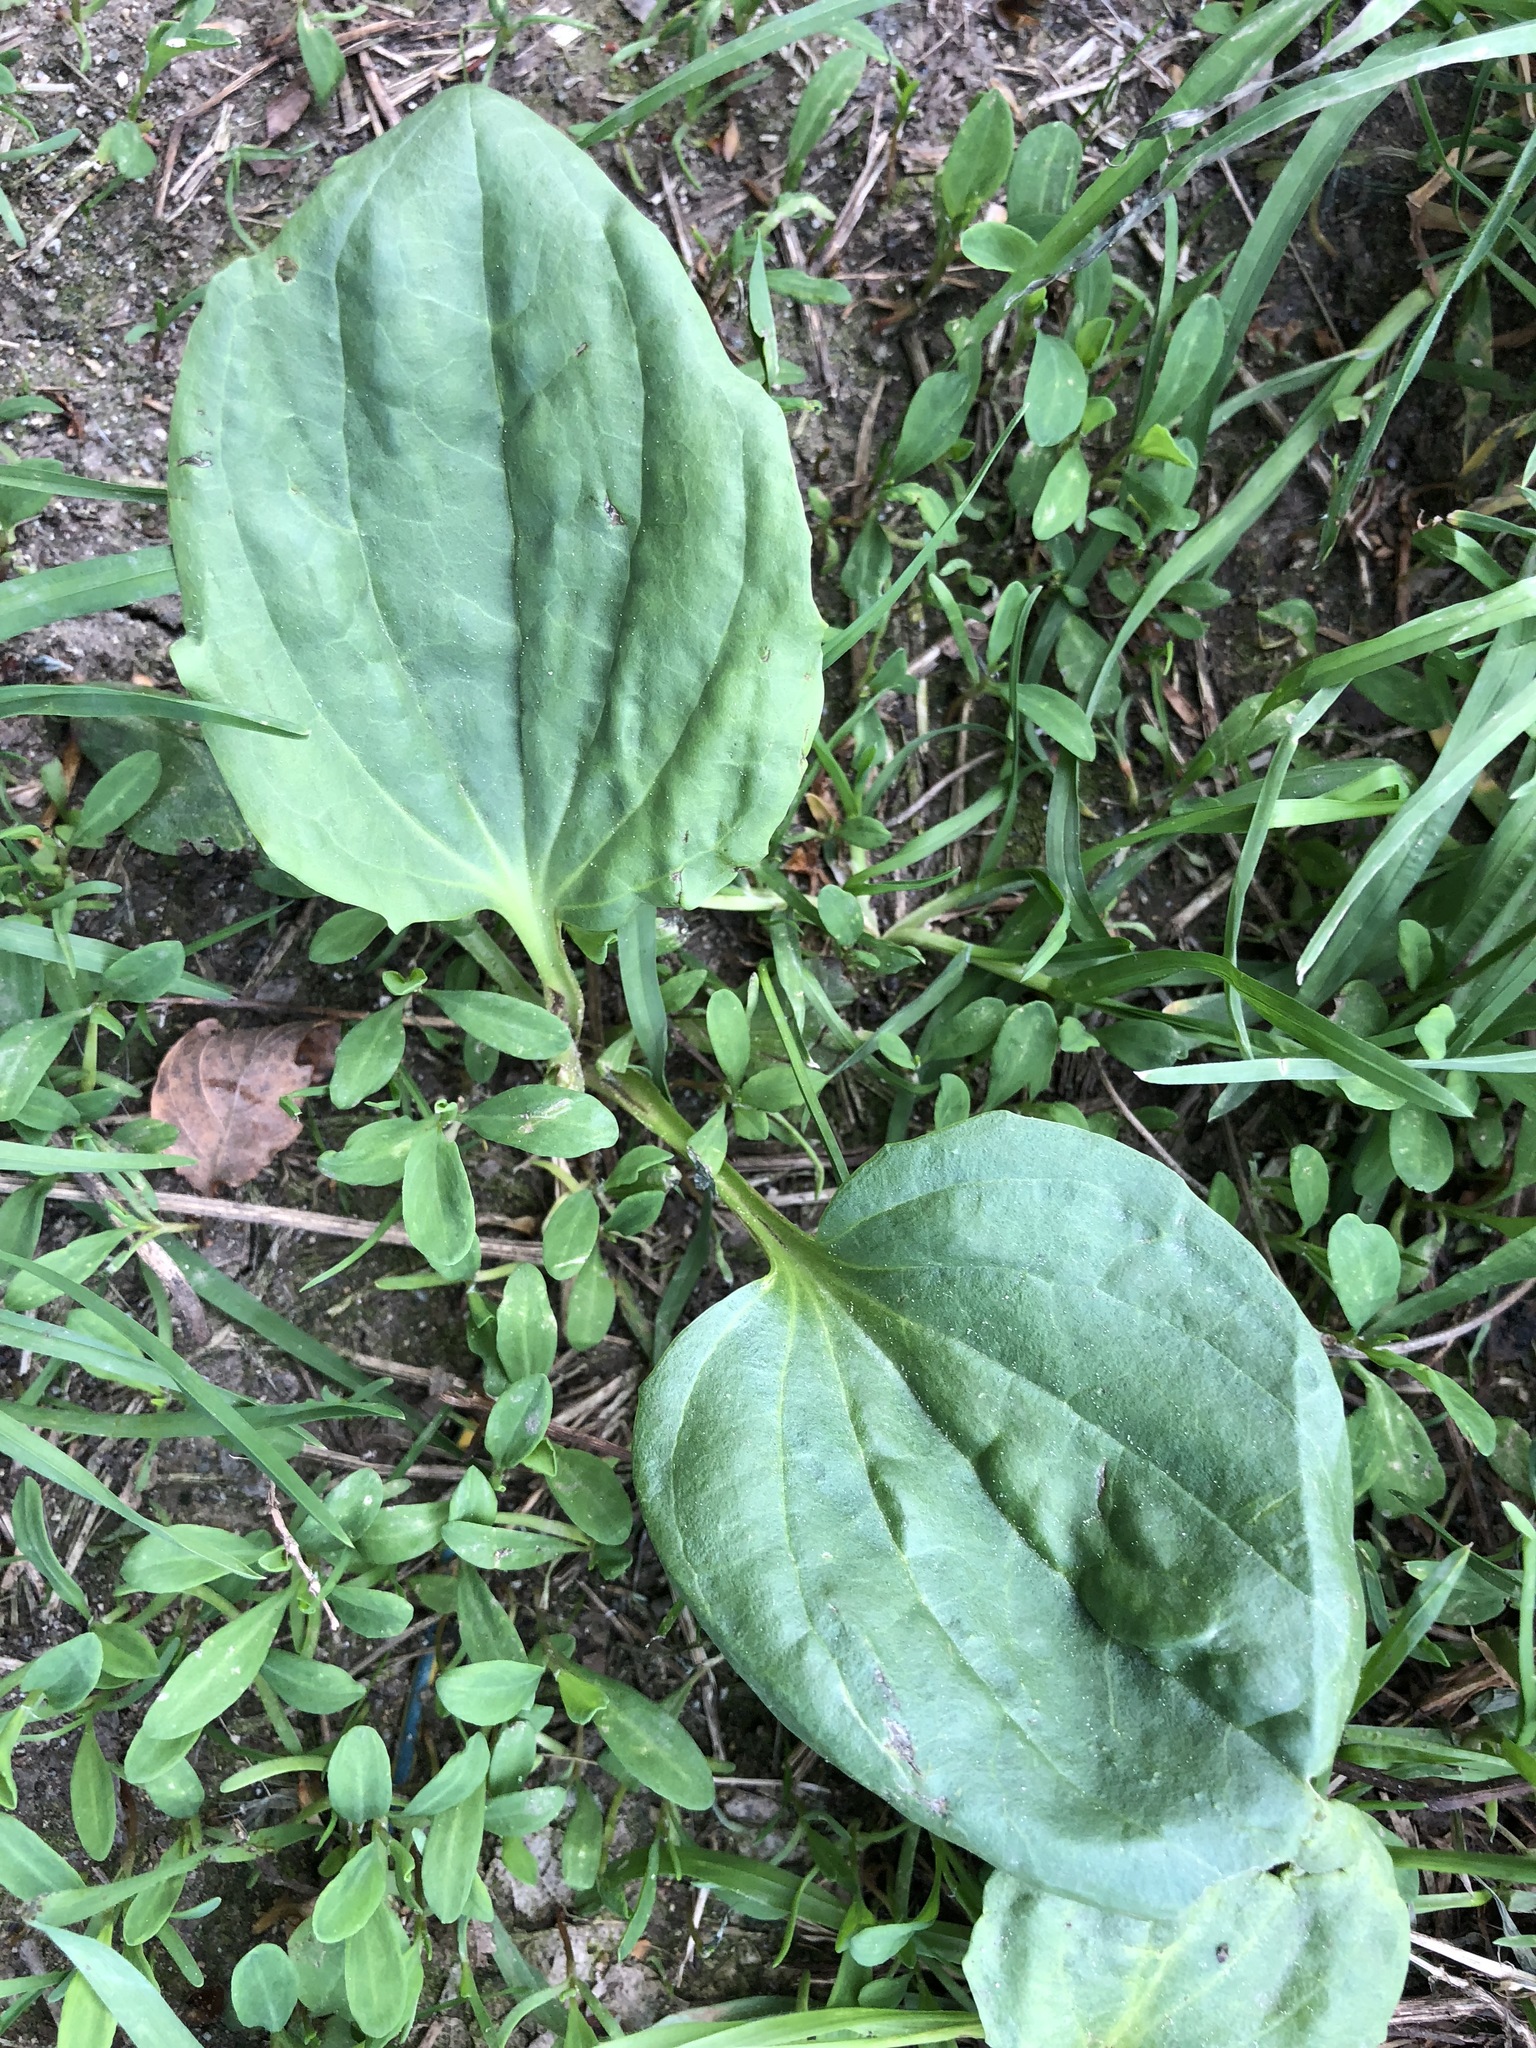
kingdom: Plantae
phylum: Tracheophyta
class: Magnoliopsida
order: Lamiales
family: Plantaginaceae
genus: Plantago
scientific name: Plantago major
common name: Common plantain
